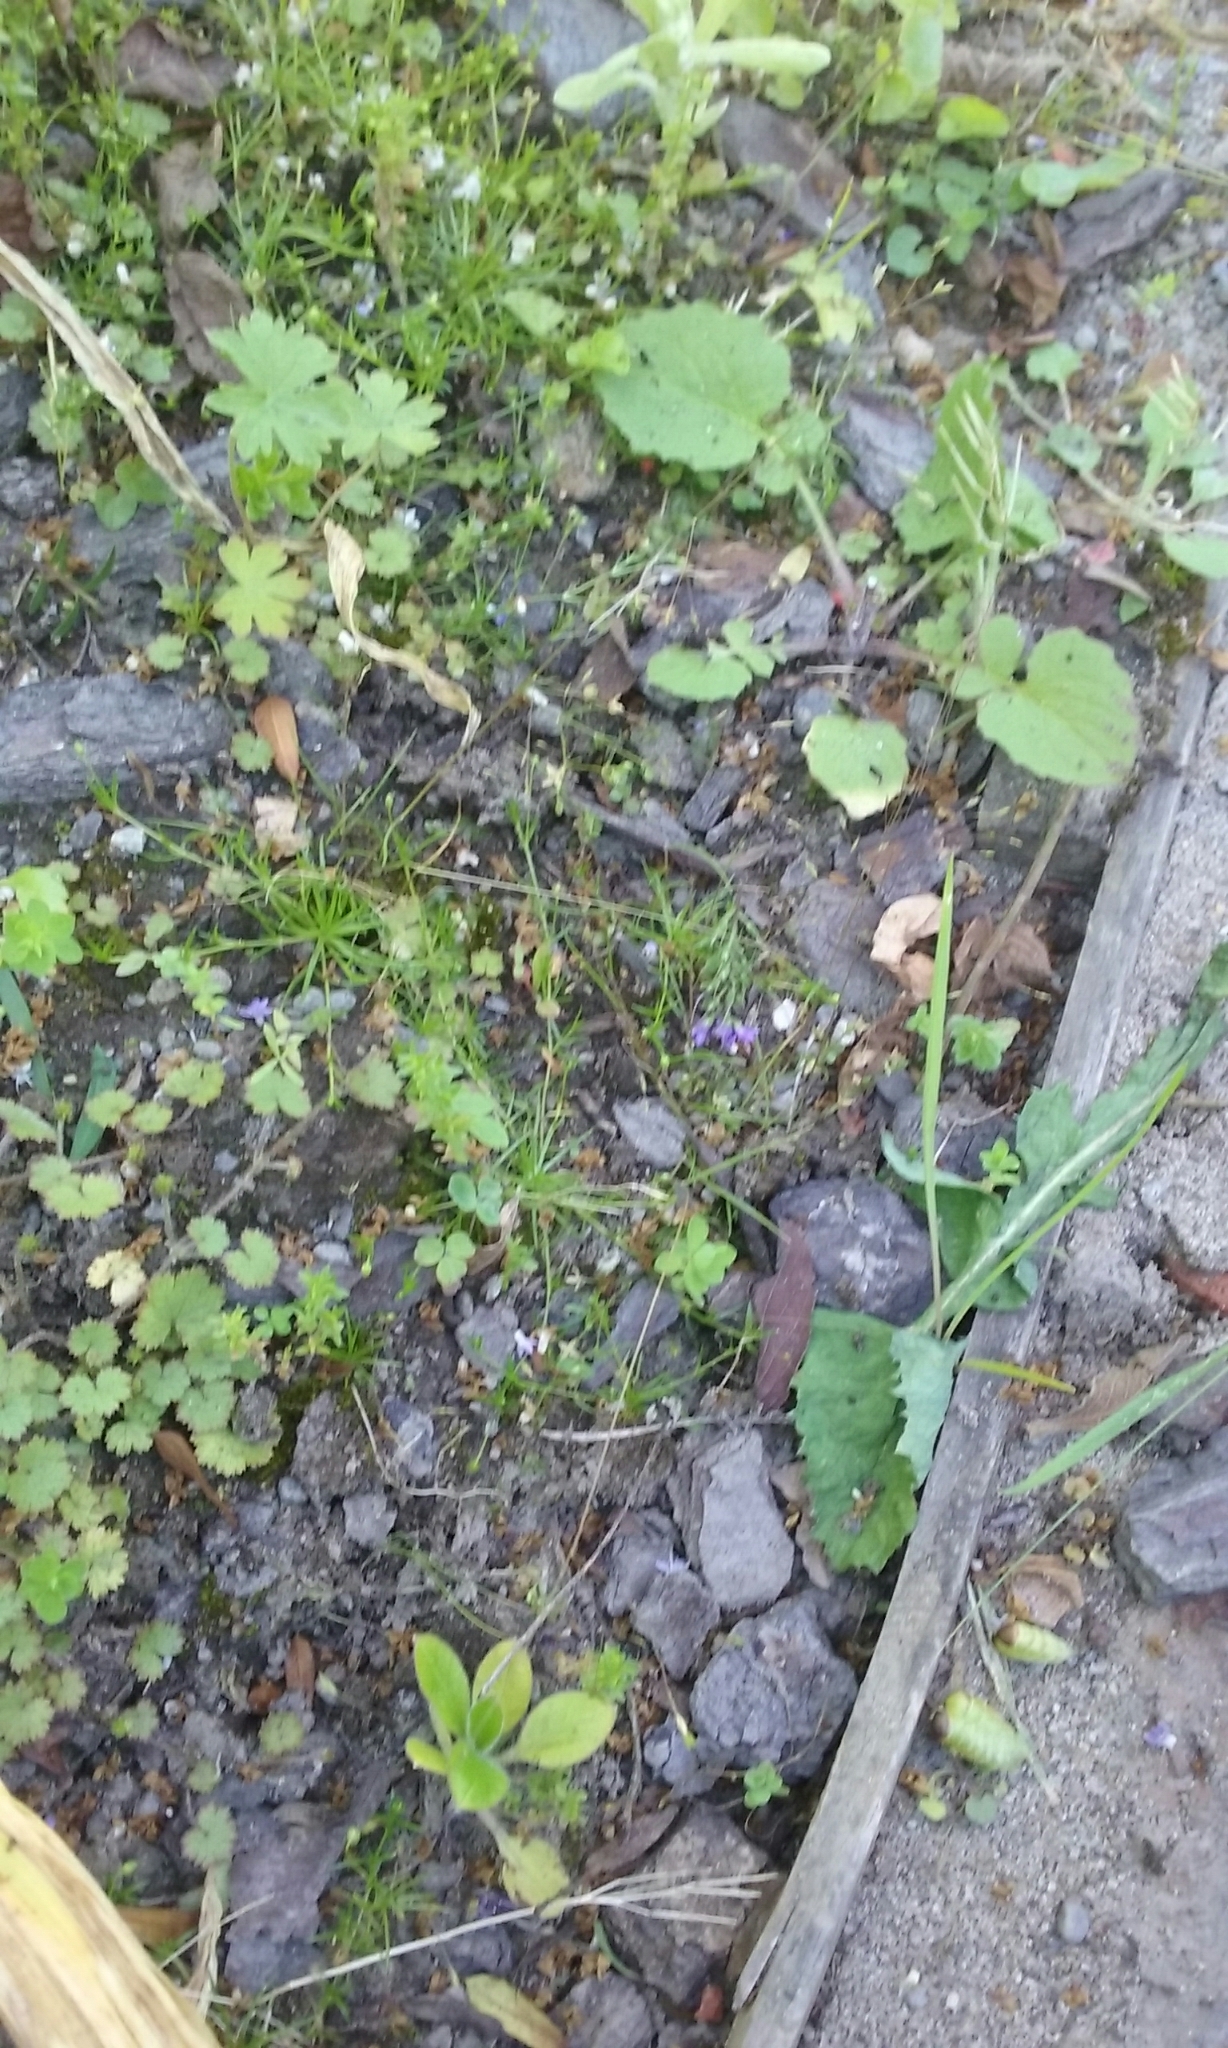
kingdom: Plantae
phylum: Tracheophyta
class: Liliopsida
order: Poales
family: Poaceae
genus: Poa
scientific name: Poa imbecilla
